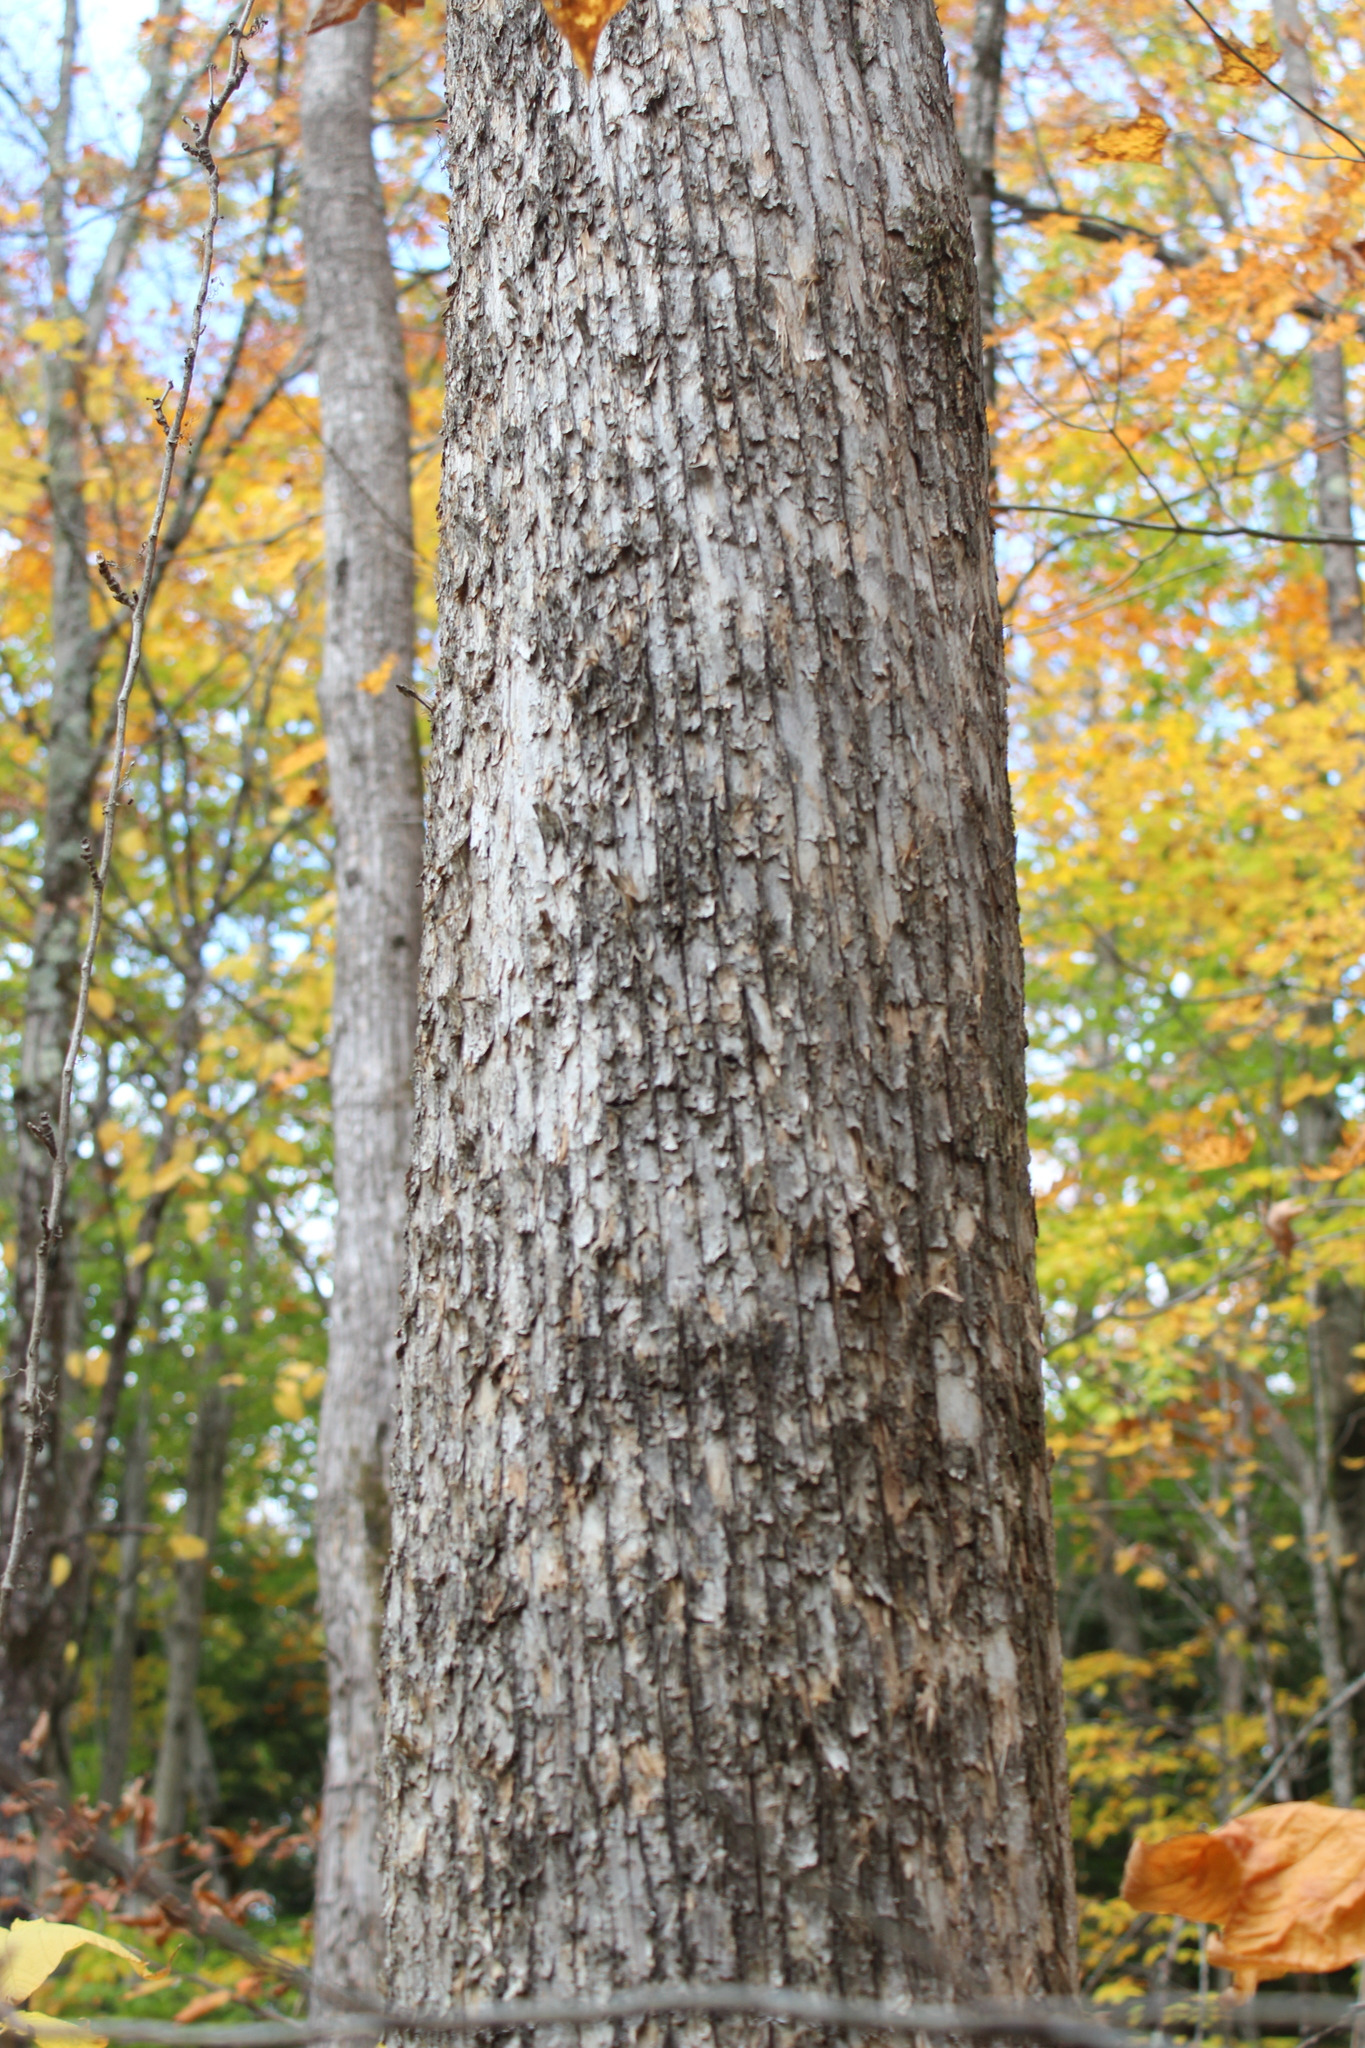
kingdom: Plantae
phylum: Tracheophyta
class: Magnoliopsida
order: Fagales
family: Betulaceae
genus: Ostrya
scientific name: Ostrya virginiana
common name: Ironwood
